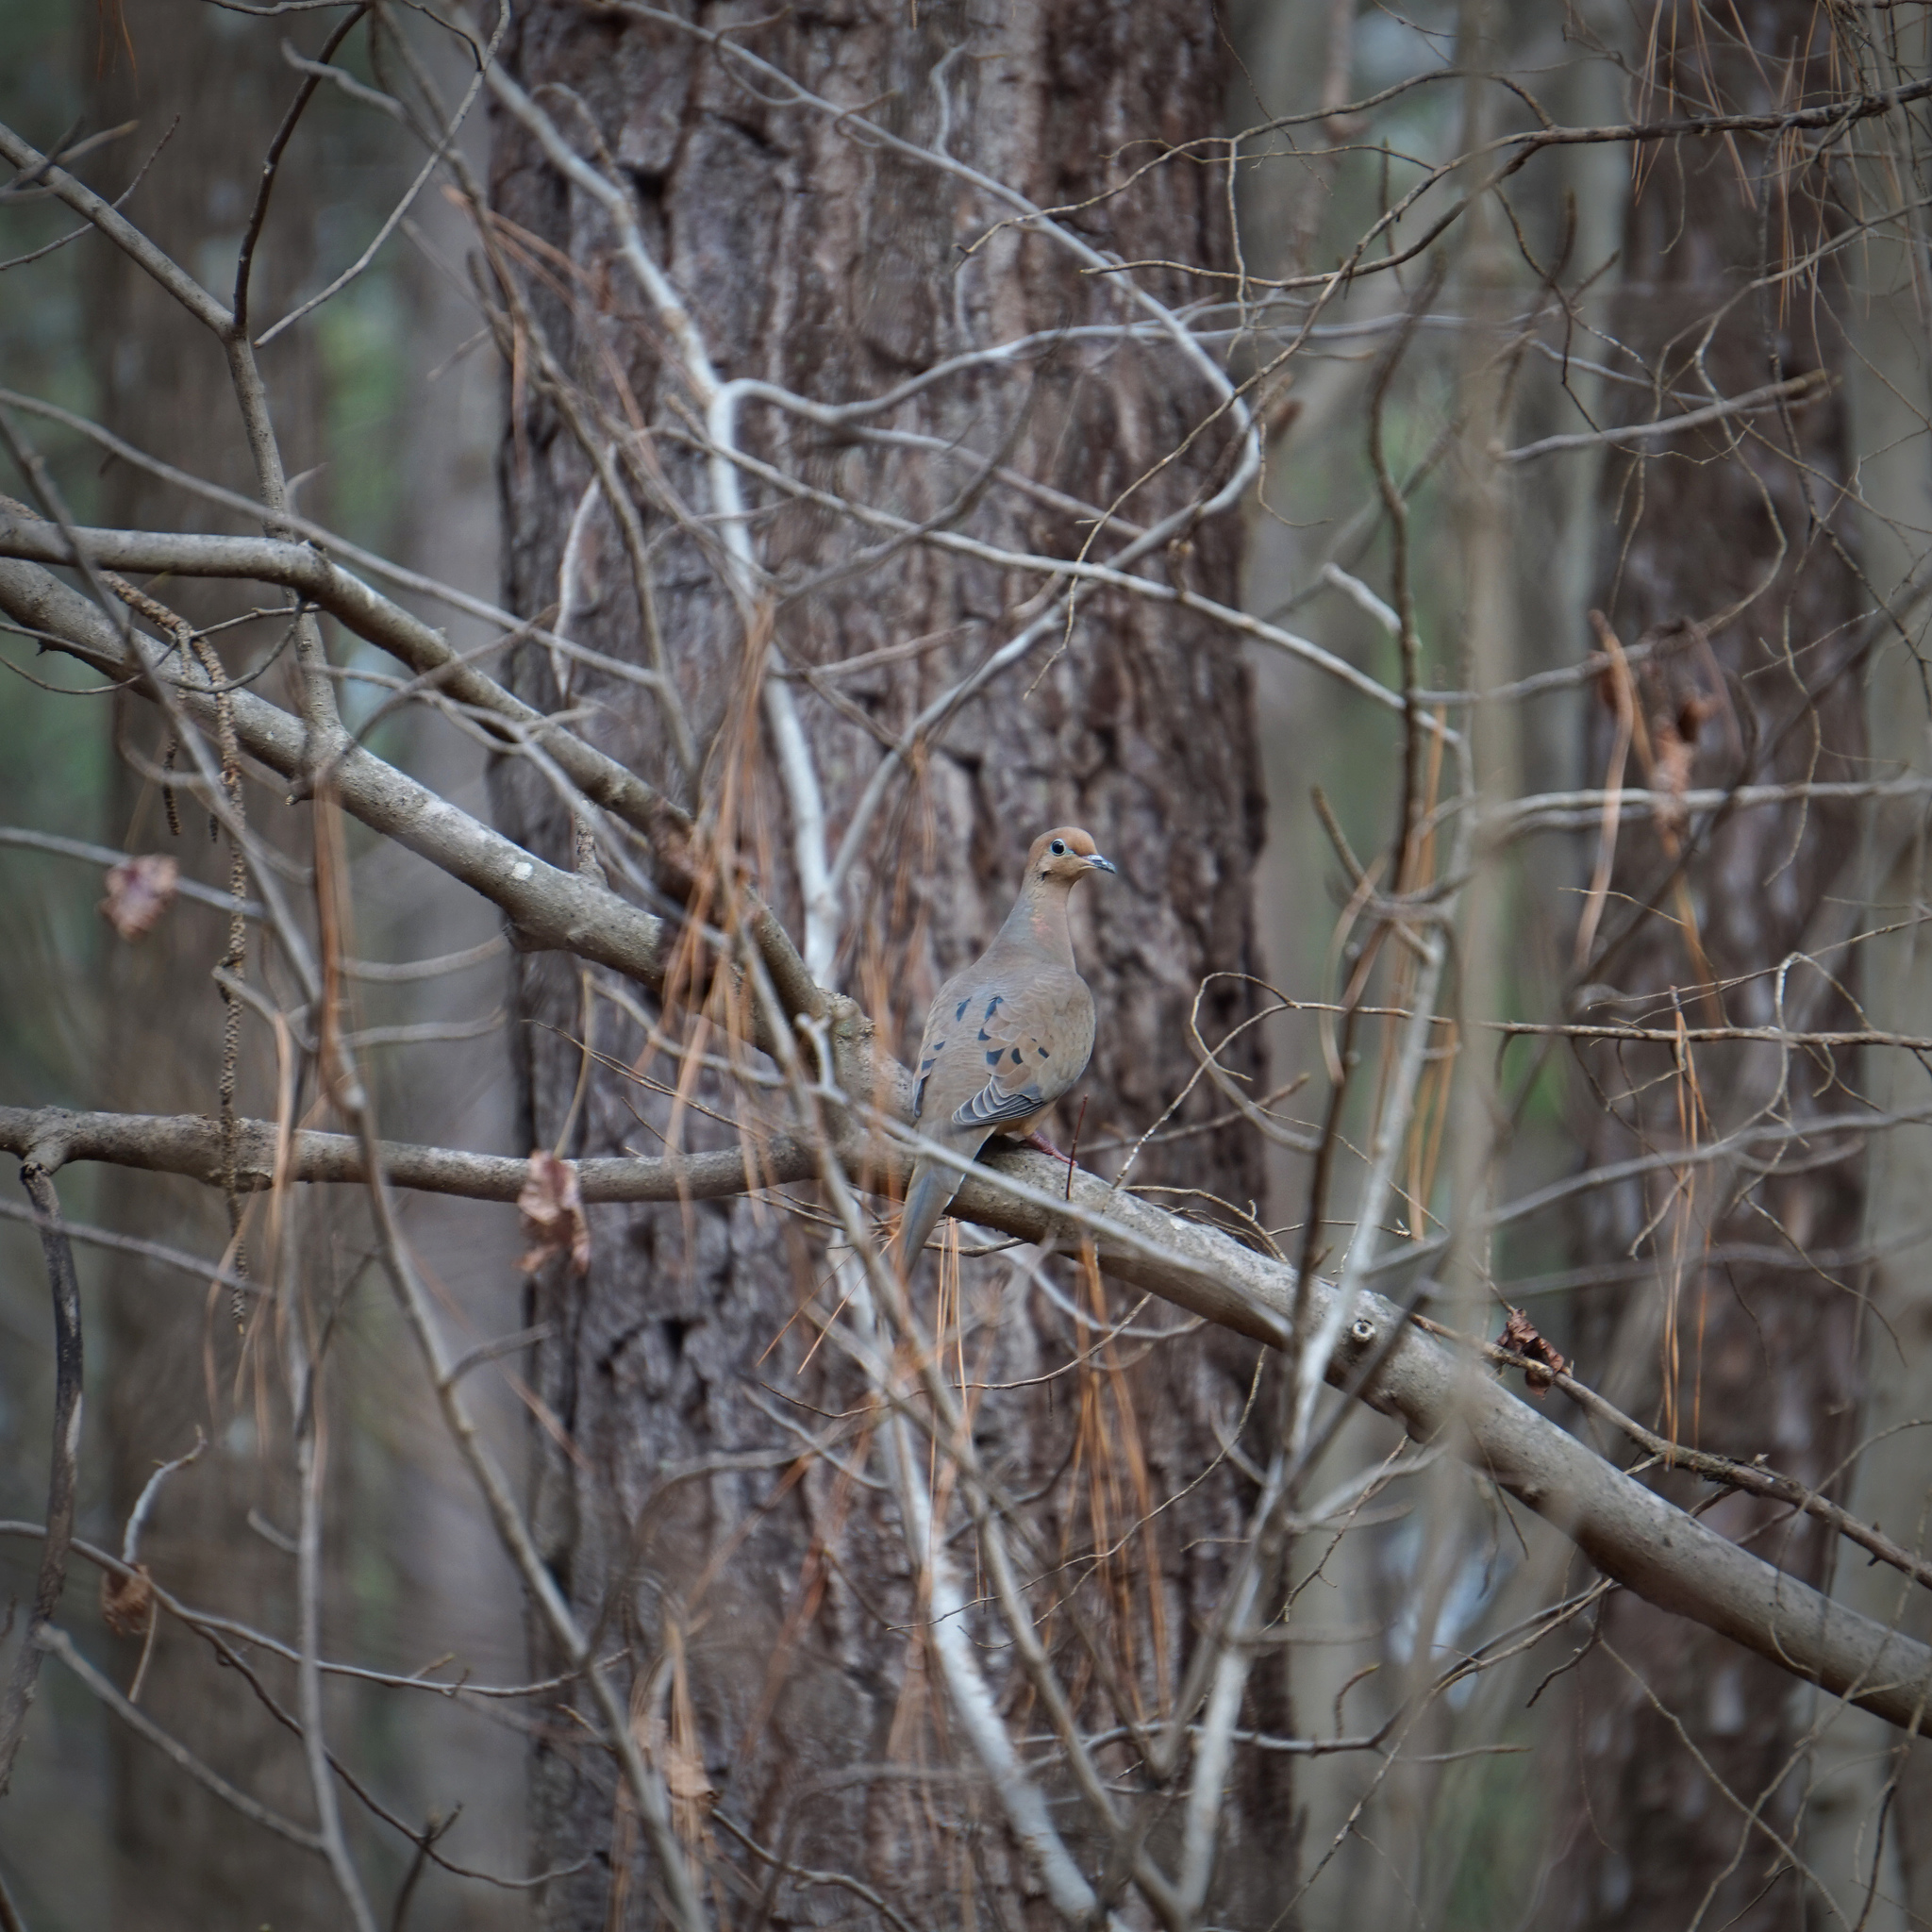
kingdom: Animalia
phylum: Chordata
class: Aves
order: Columbiformes
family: Columbidae
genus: Zenaida
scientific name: Zenaida macroura
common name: Mourning dove
